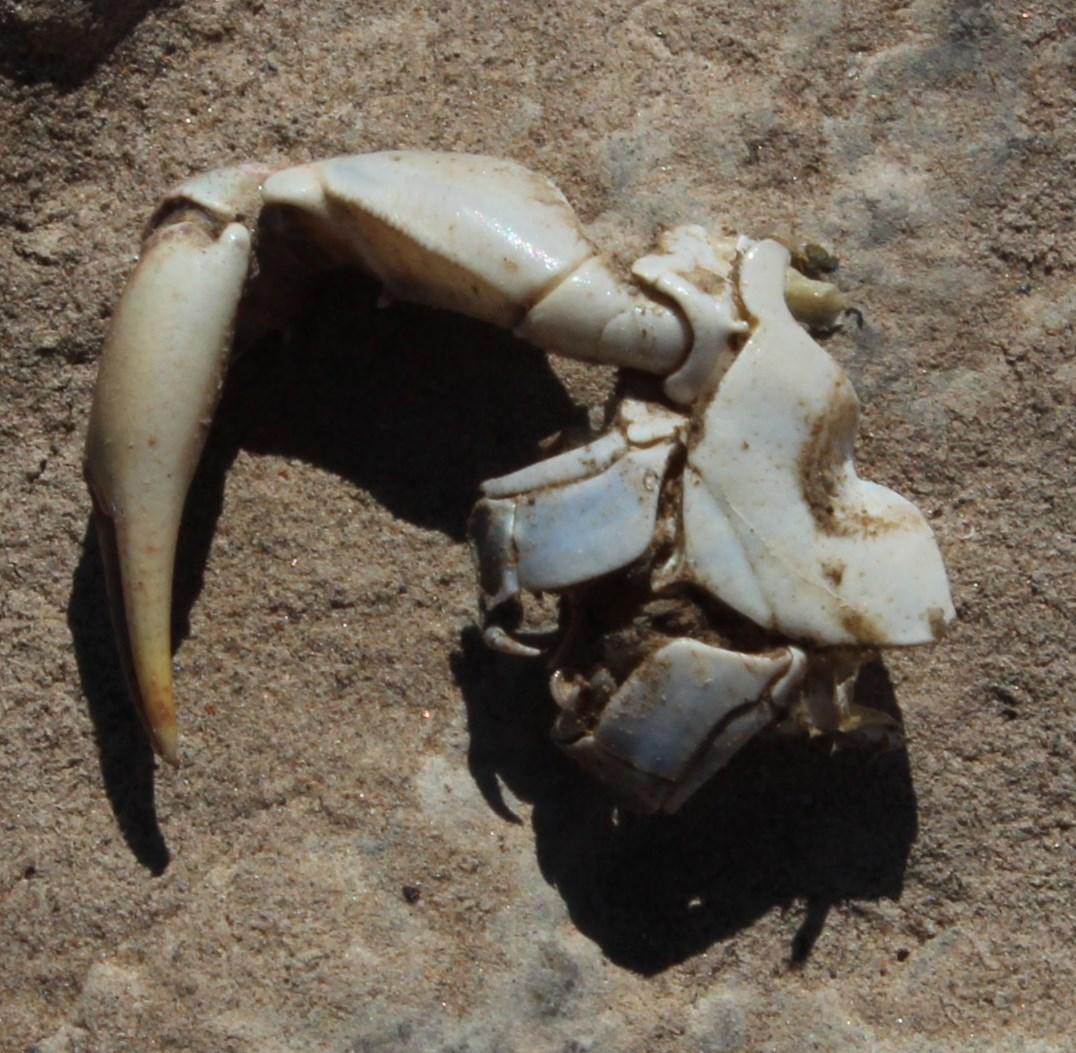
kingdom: Animalia
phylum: Arthropoda
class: Malacostraca
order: Decapoda
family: Potamonautidae
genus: Potamonautes
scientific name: Potamonautes warreni
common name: Warren's river crab
